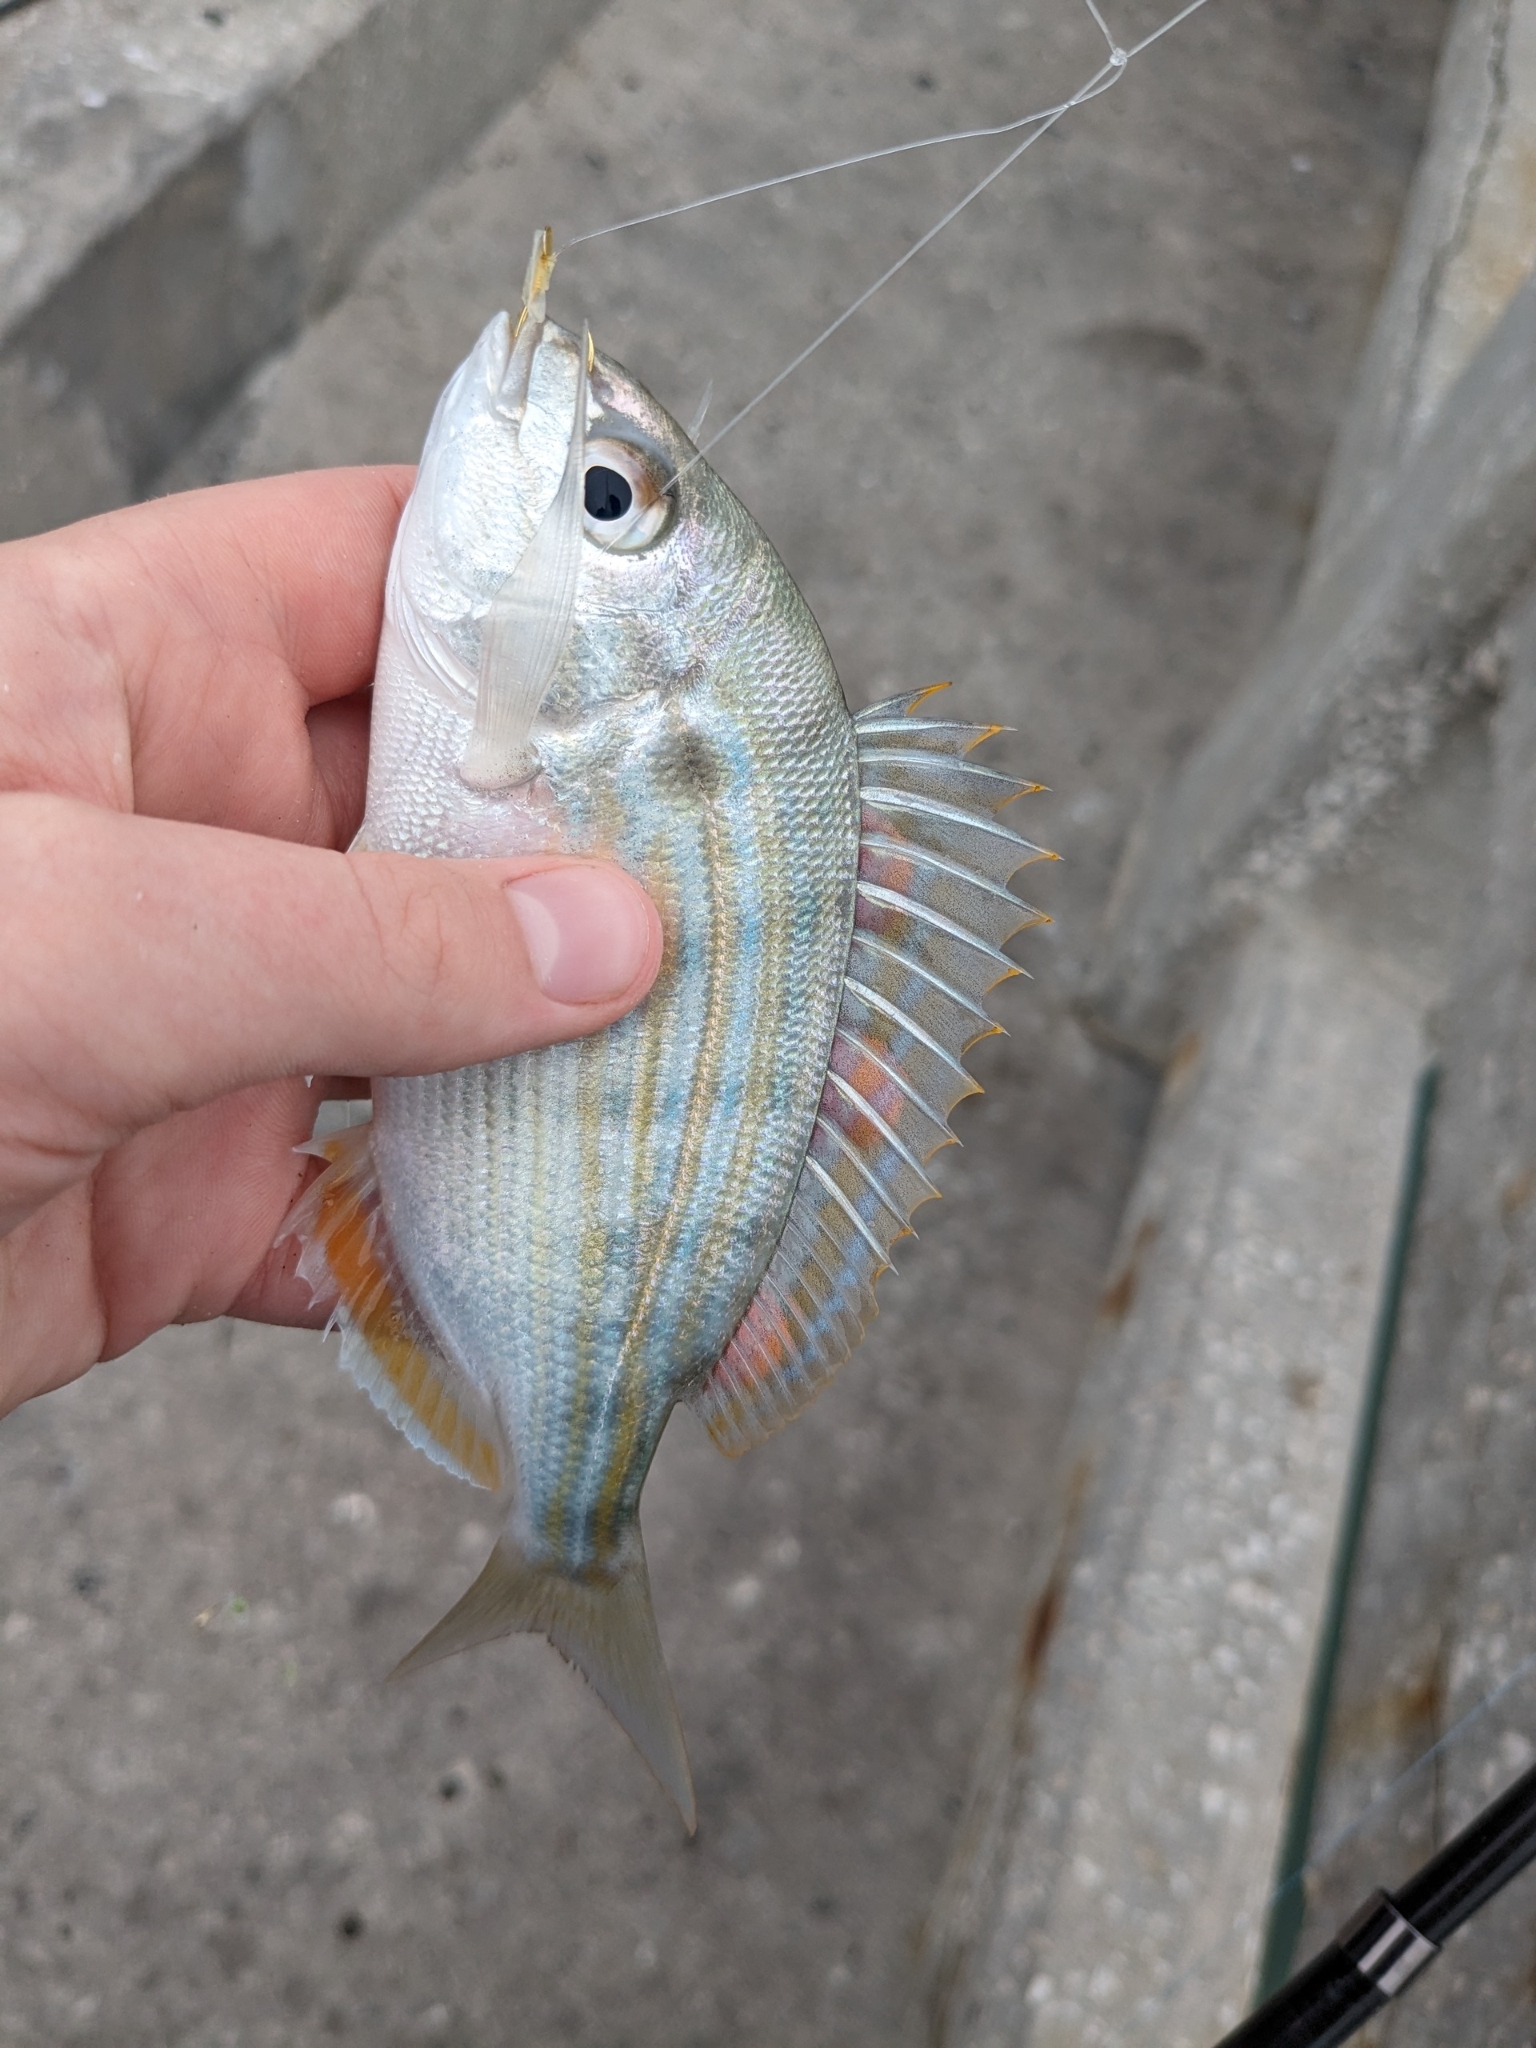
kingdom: Animalia
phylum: Chordata
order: Perciformes
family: Sparidae
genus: Lagodon
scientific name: Lagodon rhomboides
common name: Pinfish
